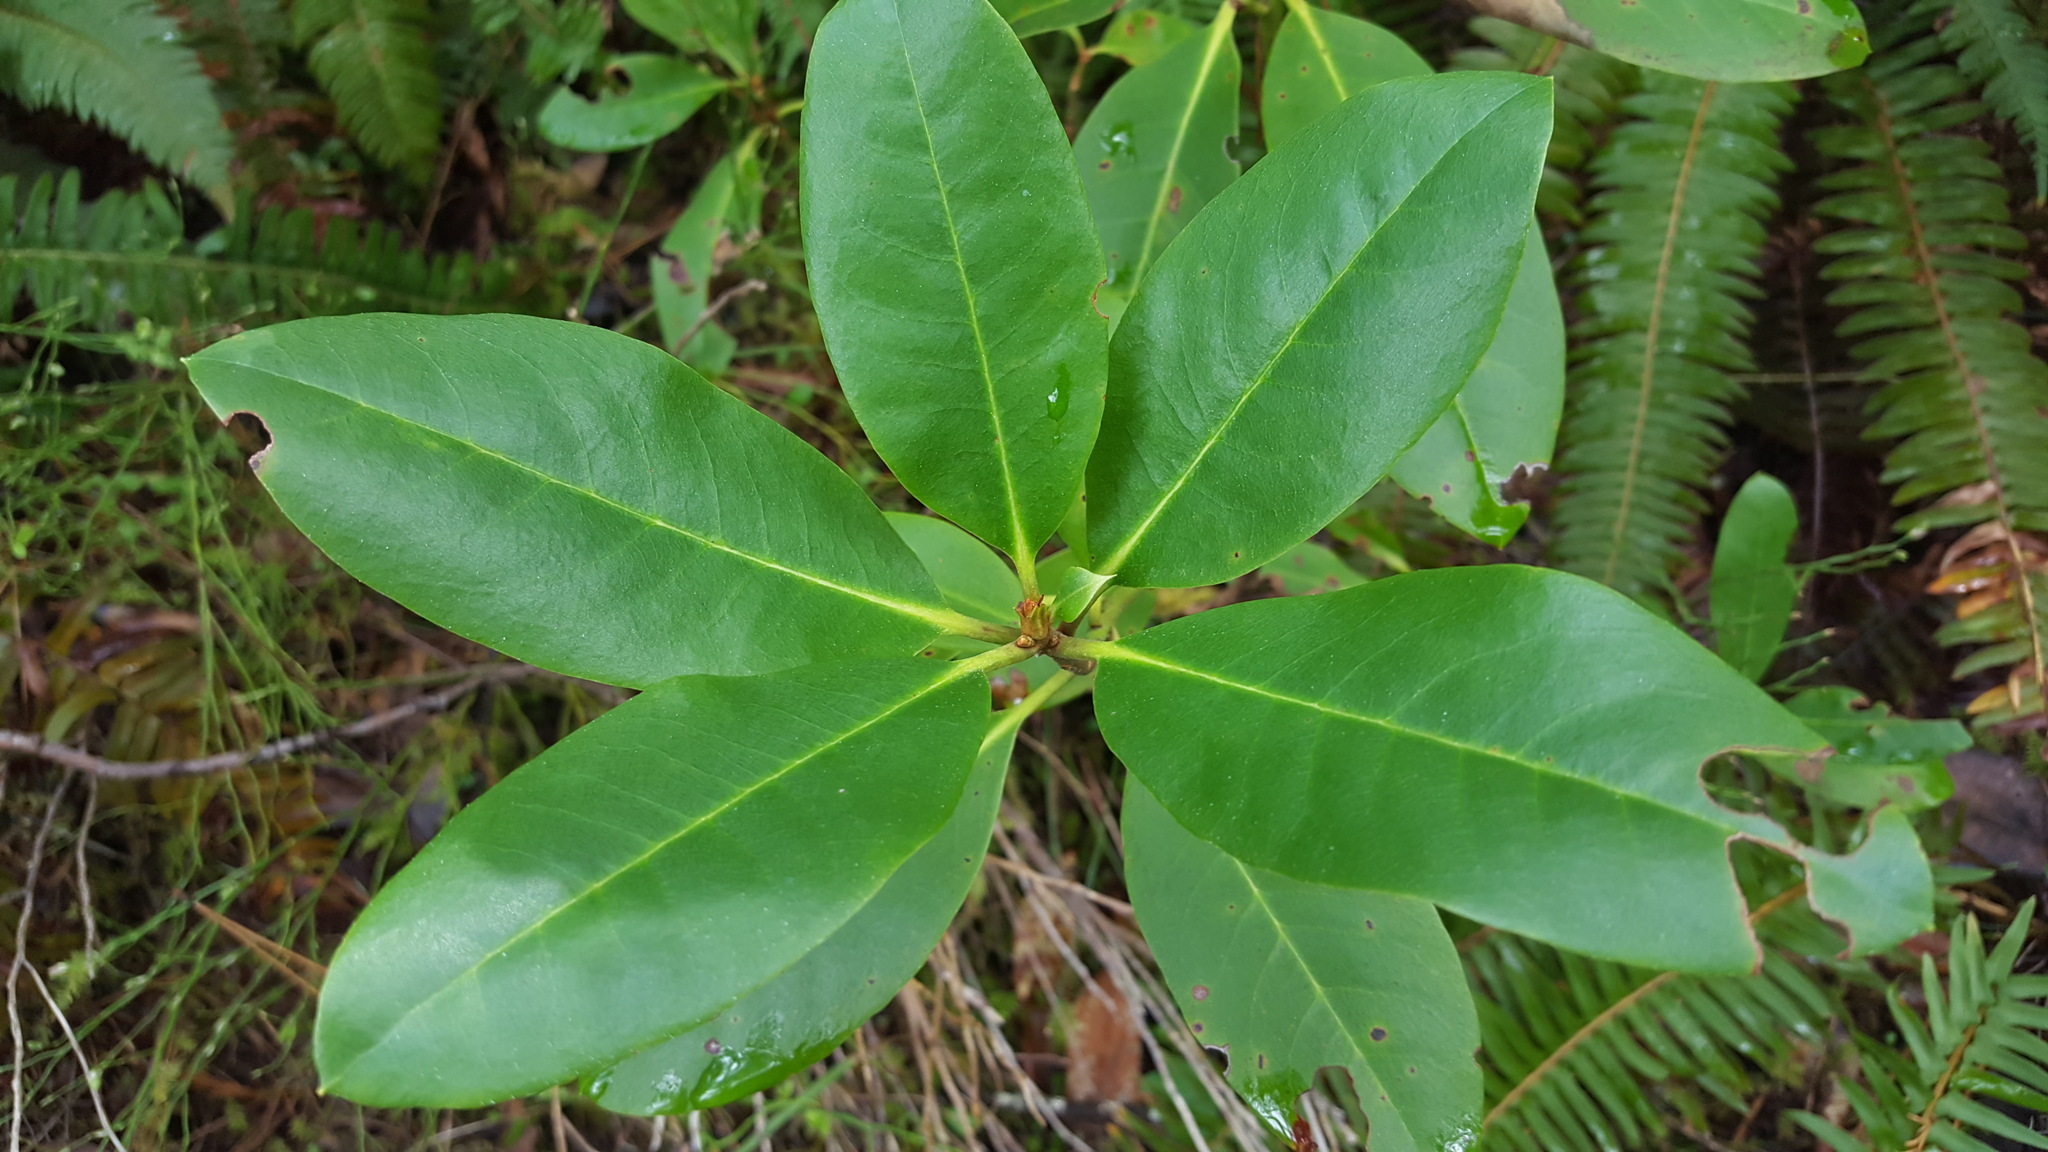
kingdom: Plantae
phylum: Tracheophyta
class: Magnoliopsida
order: Ericales
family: Ericaceae
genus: Rhododendron
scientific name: Rhododendron macrophyllum
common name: California rose bay
